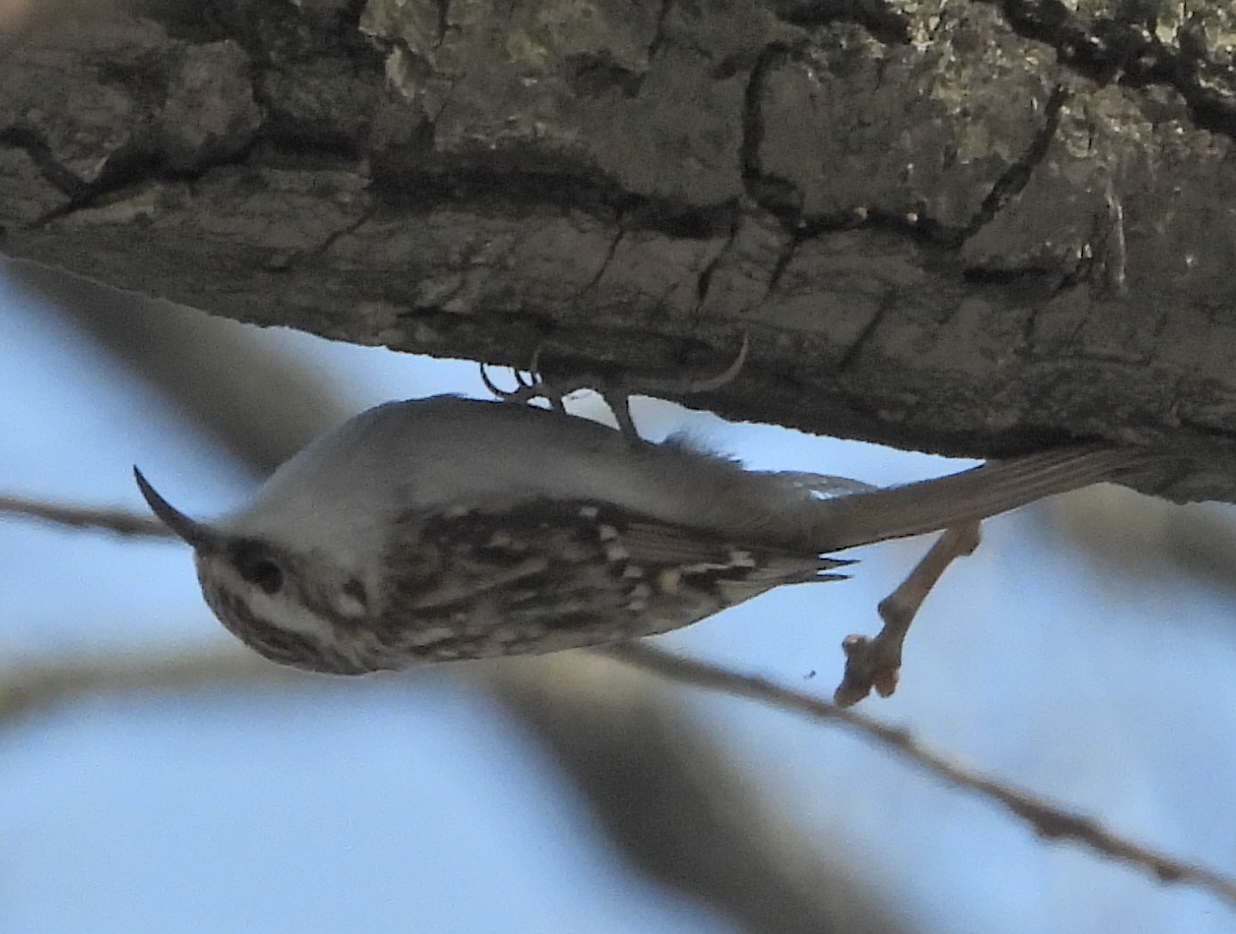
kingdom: Animalia
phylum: Chordata
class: Aves
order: Passeriformes
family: Certhiidae
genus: Certhia
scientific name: Certhia familiaris
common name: Eurasian treecreeper
